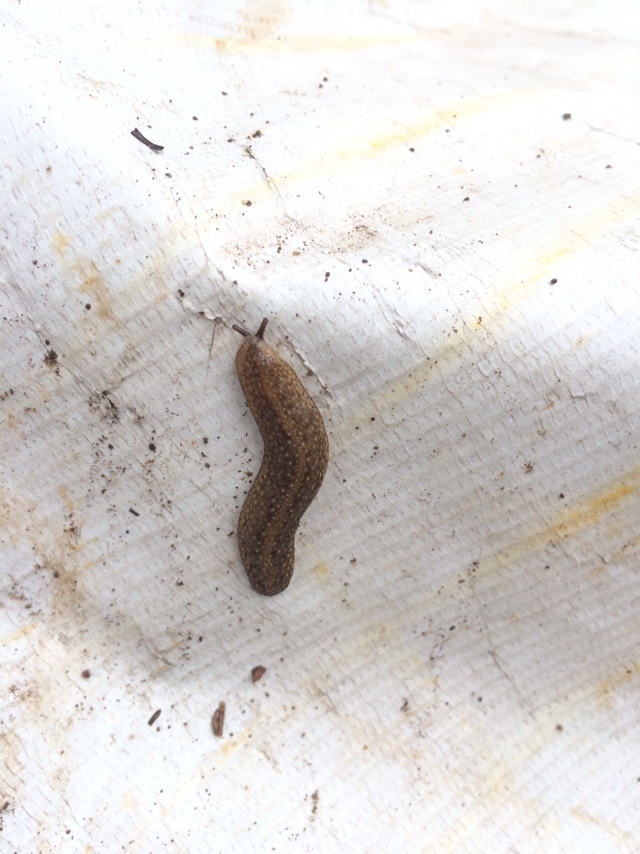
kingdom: Animalia
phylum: Mollusca
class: Gastropoda
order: Systellommatophora
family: Veronicellidae
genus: Laevicaulis
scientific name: Laevicaulis alte
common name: Tropical leatherleaf
